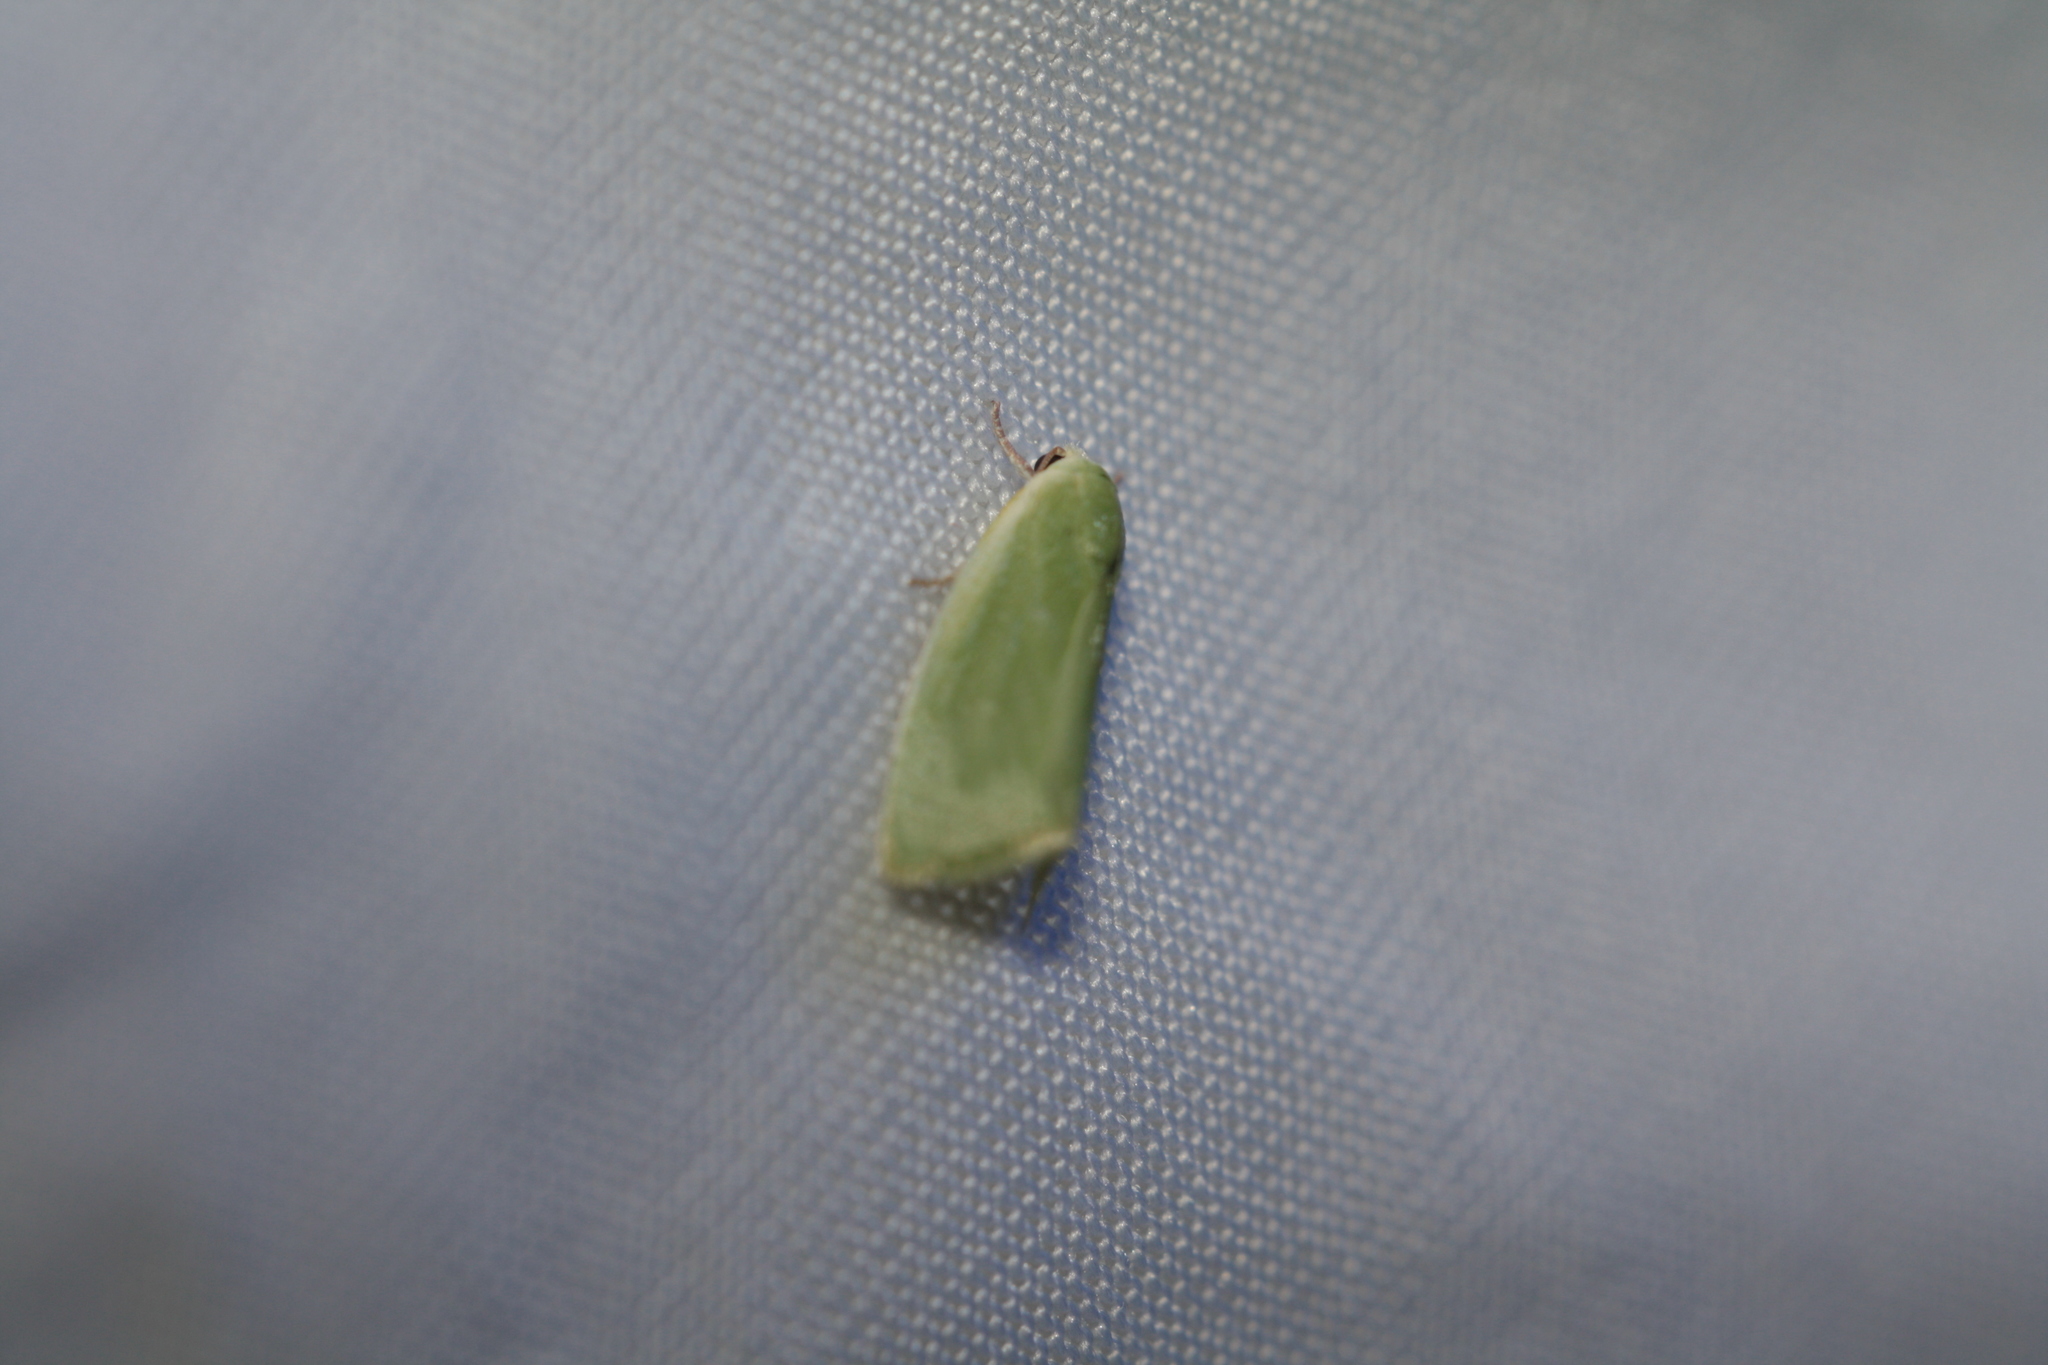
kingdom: Animalia
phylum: Arthropoda
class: Insecta
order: Lepidoptera
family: Nolidae
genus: Earias
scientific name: Earias clorana
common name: Cream-bordered green pea
